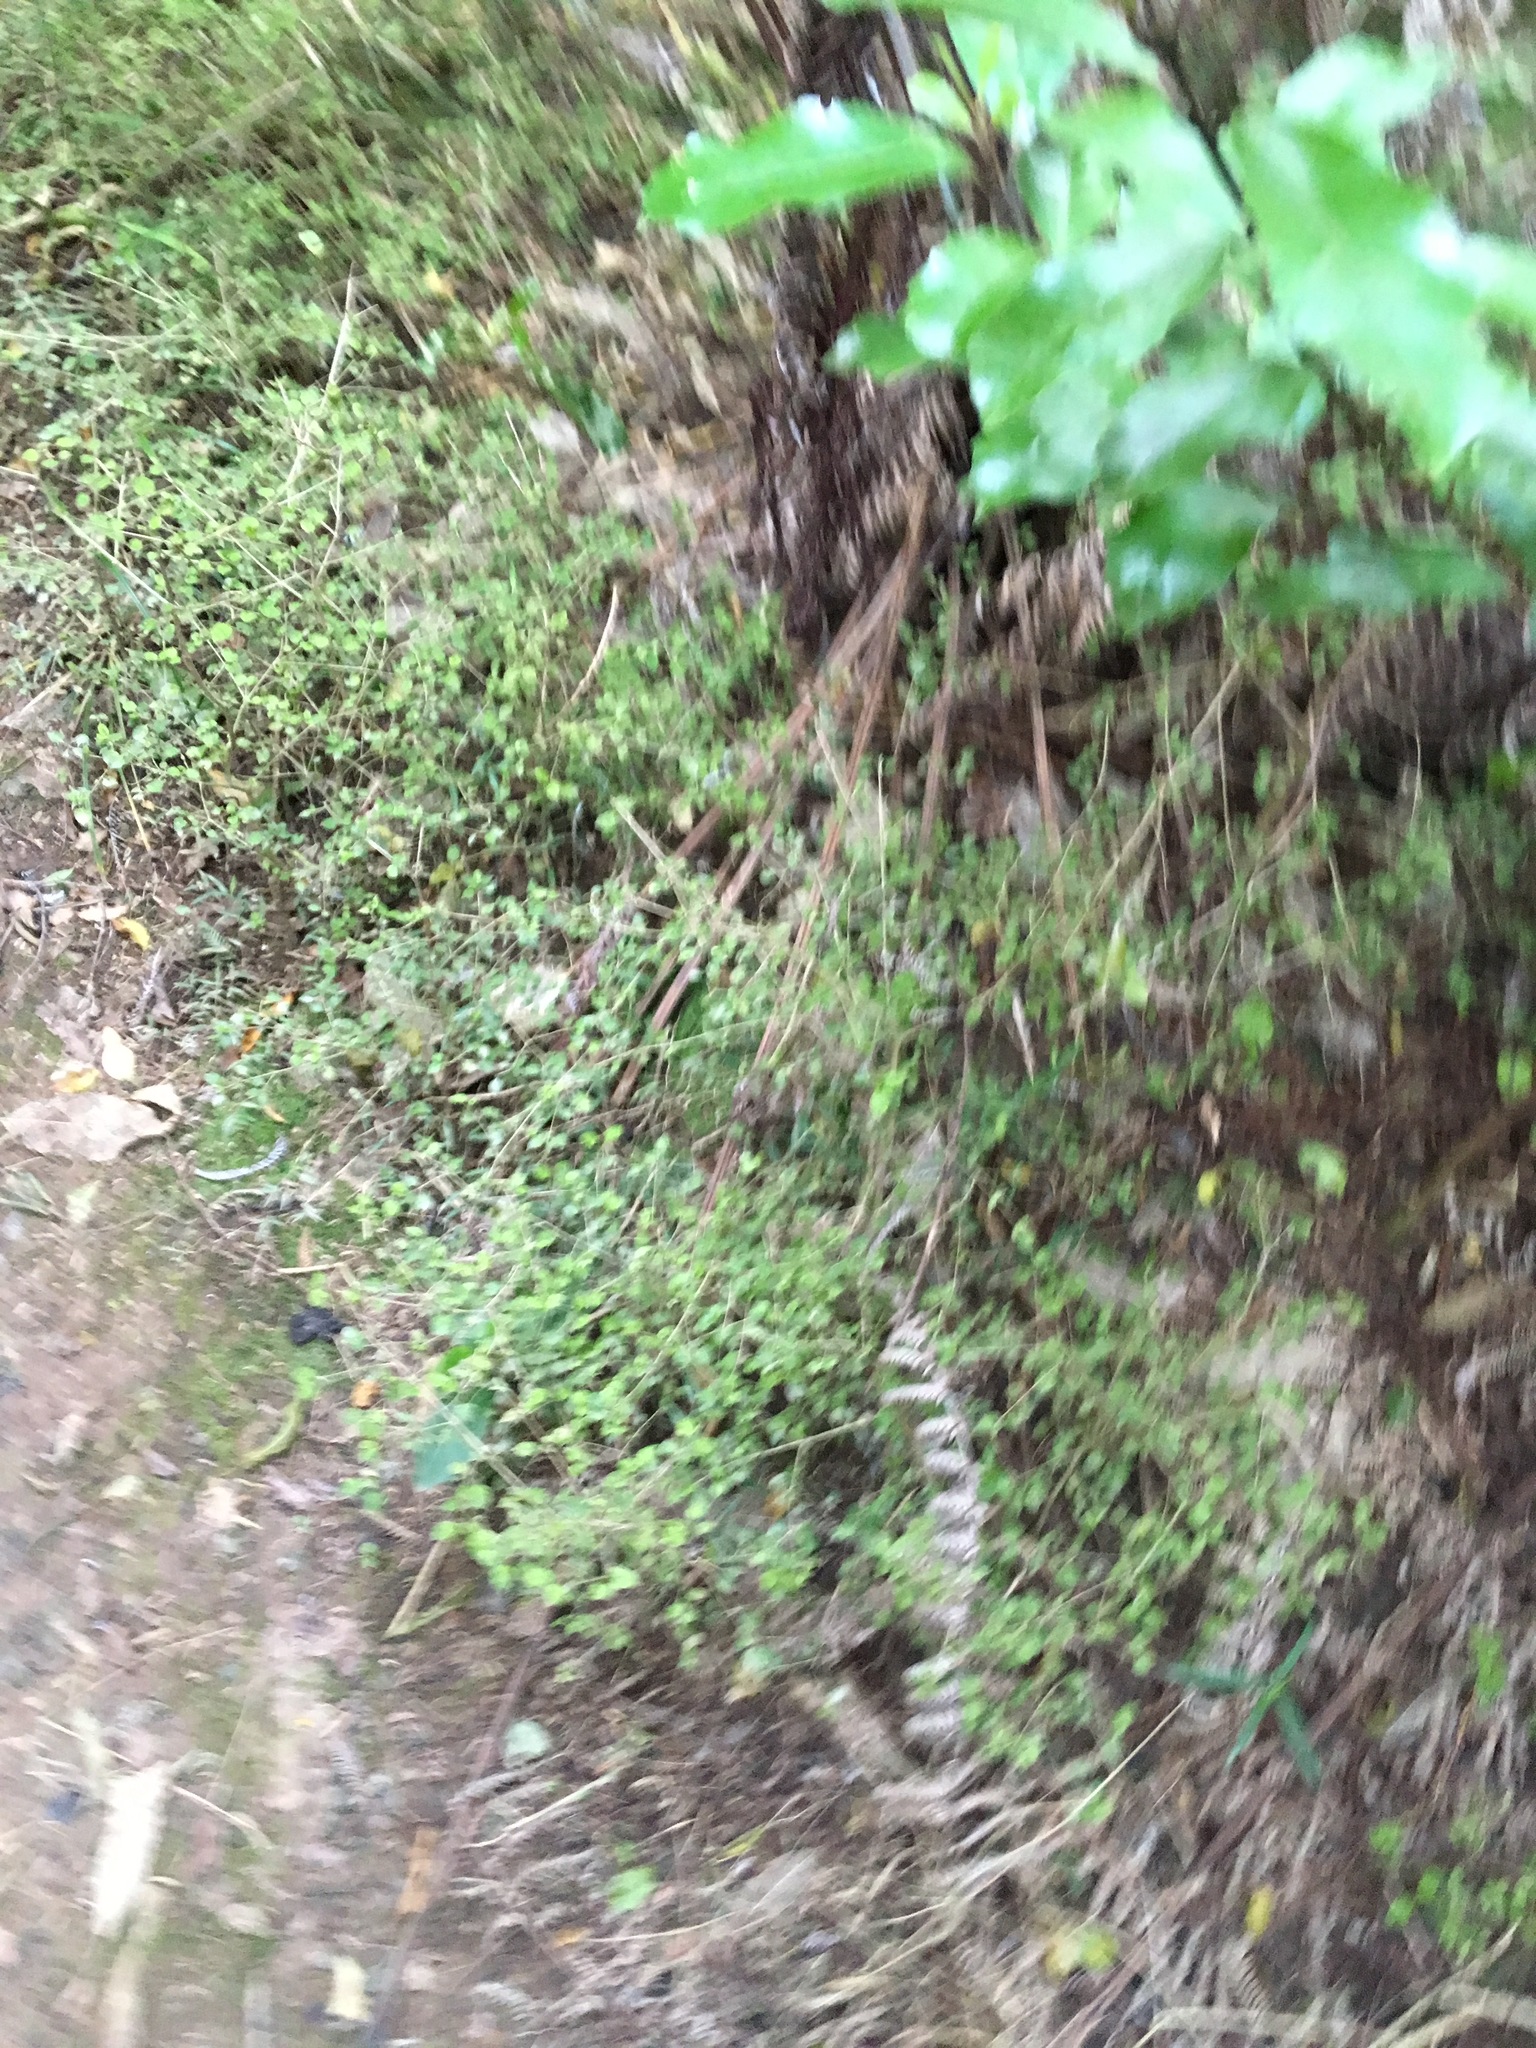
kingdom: Plantae
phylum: Tracheophyta
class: Magnoliopsida
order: Gentianales
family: Rubiaceae
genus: Coprosma
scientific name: Coprosma areolata
